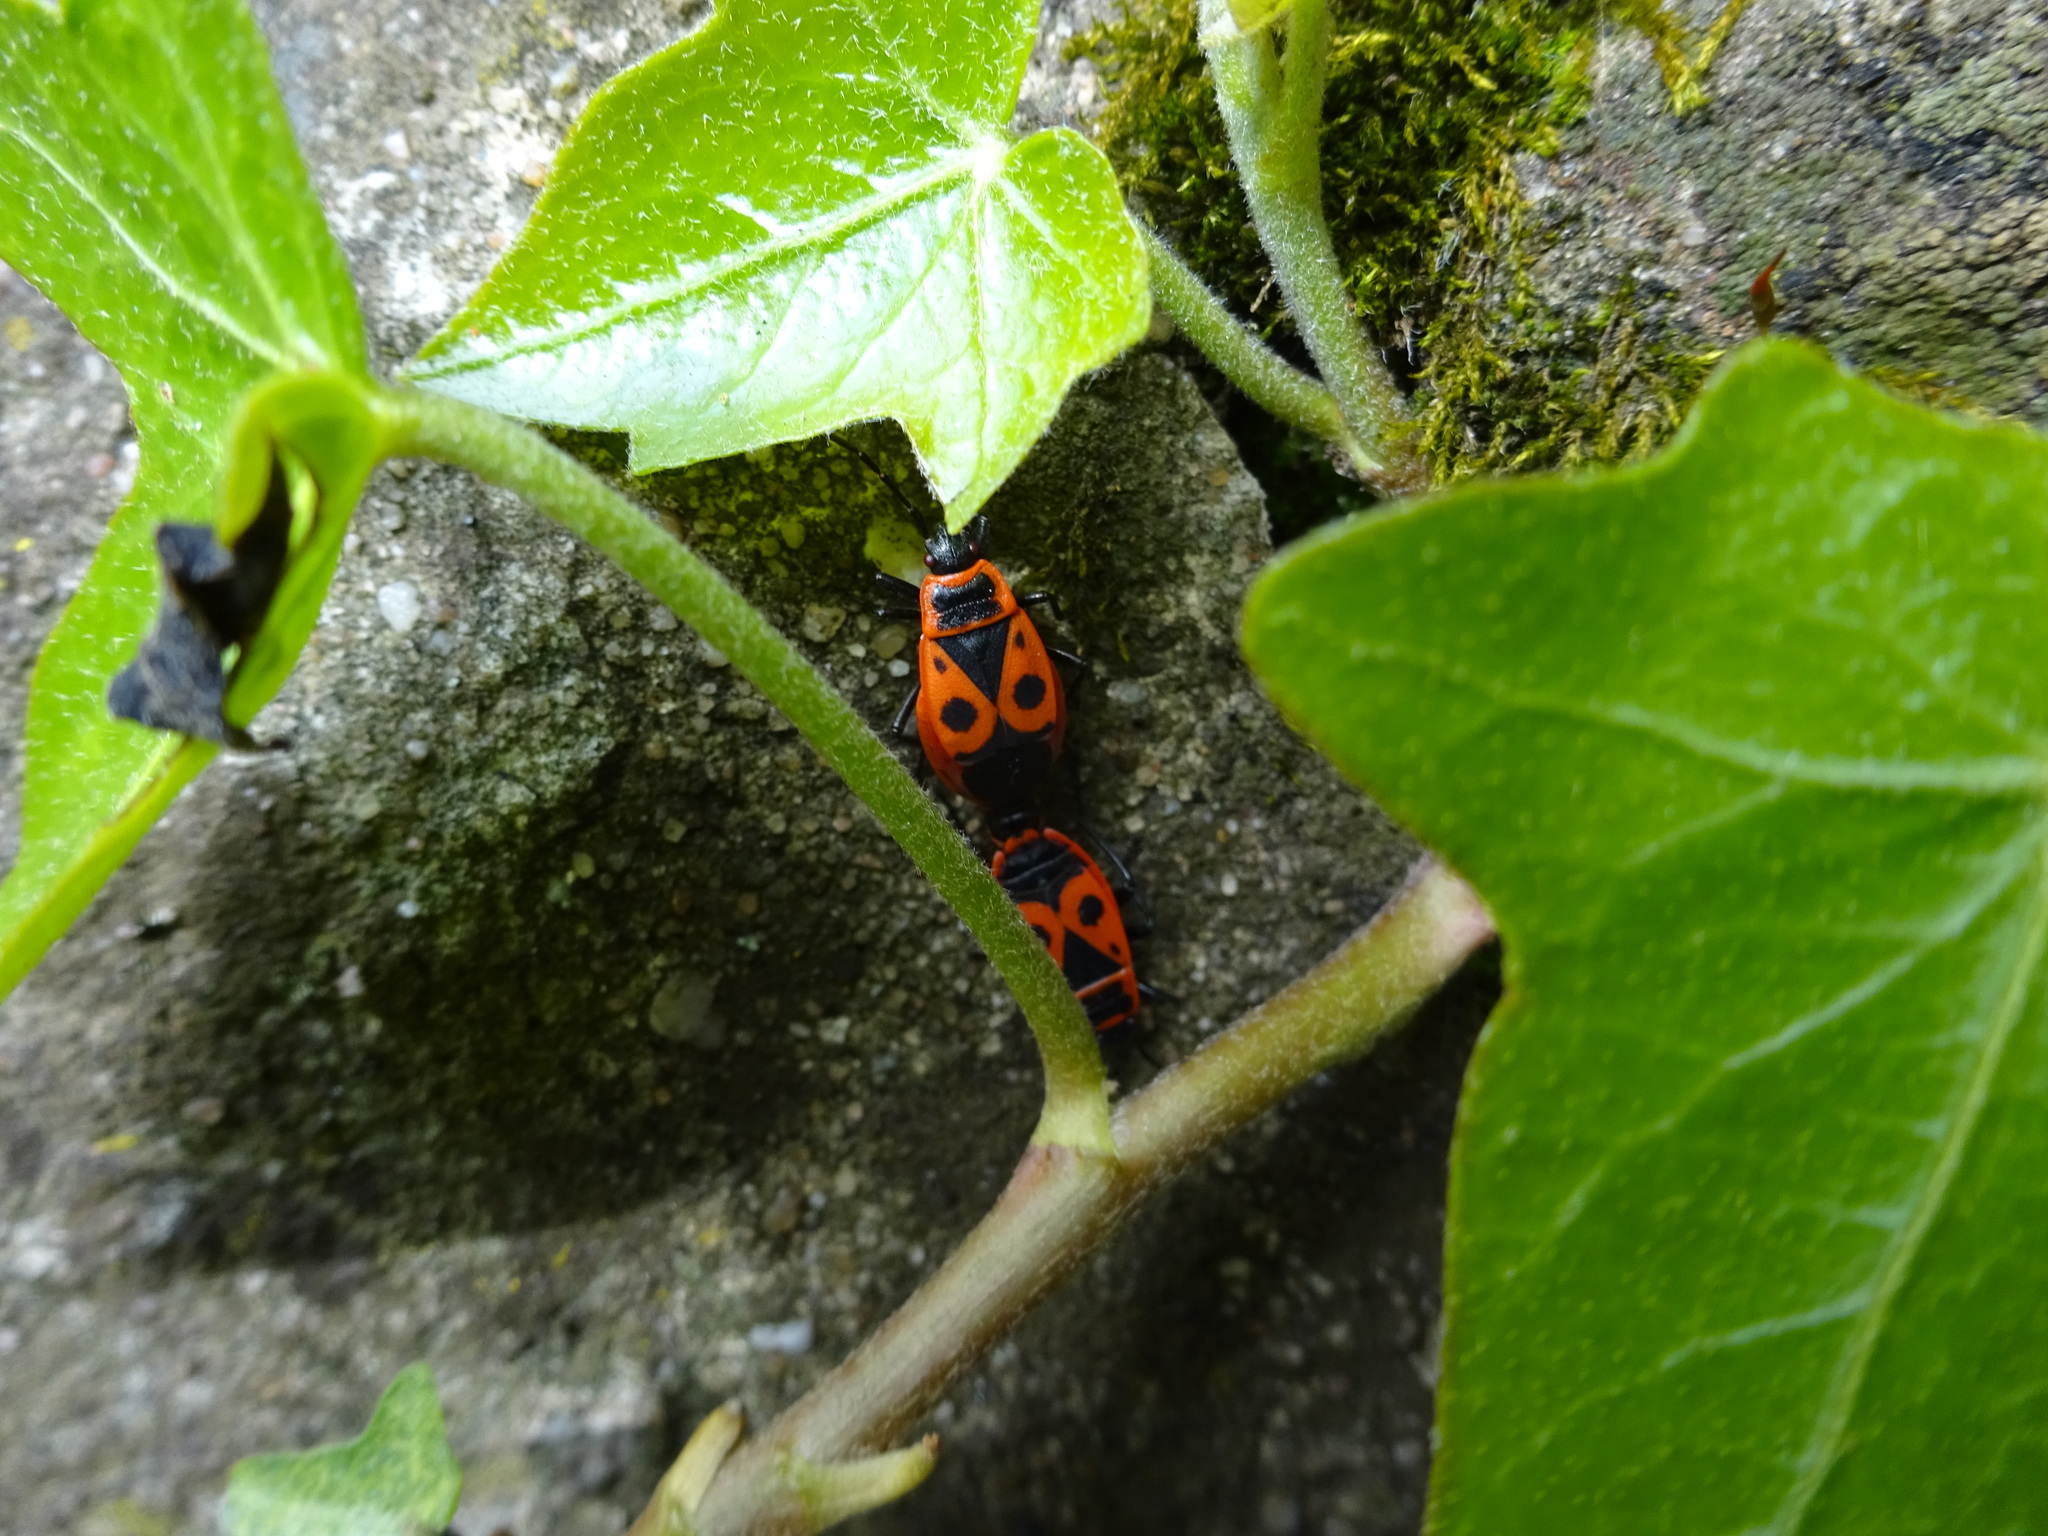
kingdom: Animalia
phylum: Arthropoda
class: Insecta
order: Hemiptera
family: Pyrrhocoridae
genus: Pyrrhocoris
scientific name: Pyrrhocoris apterus
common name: Firebug
